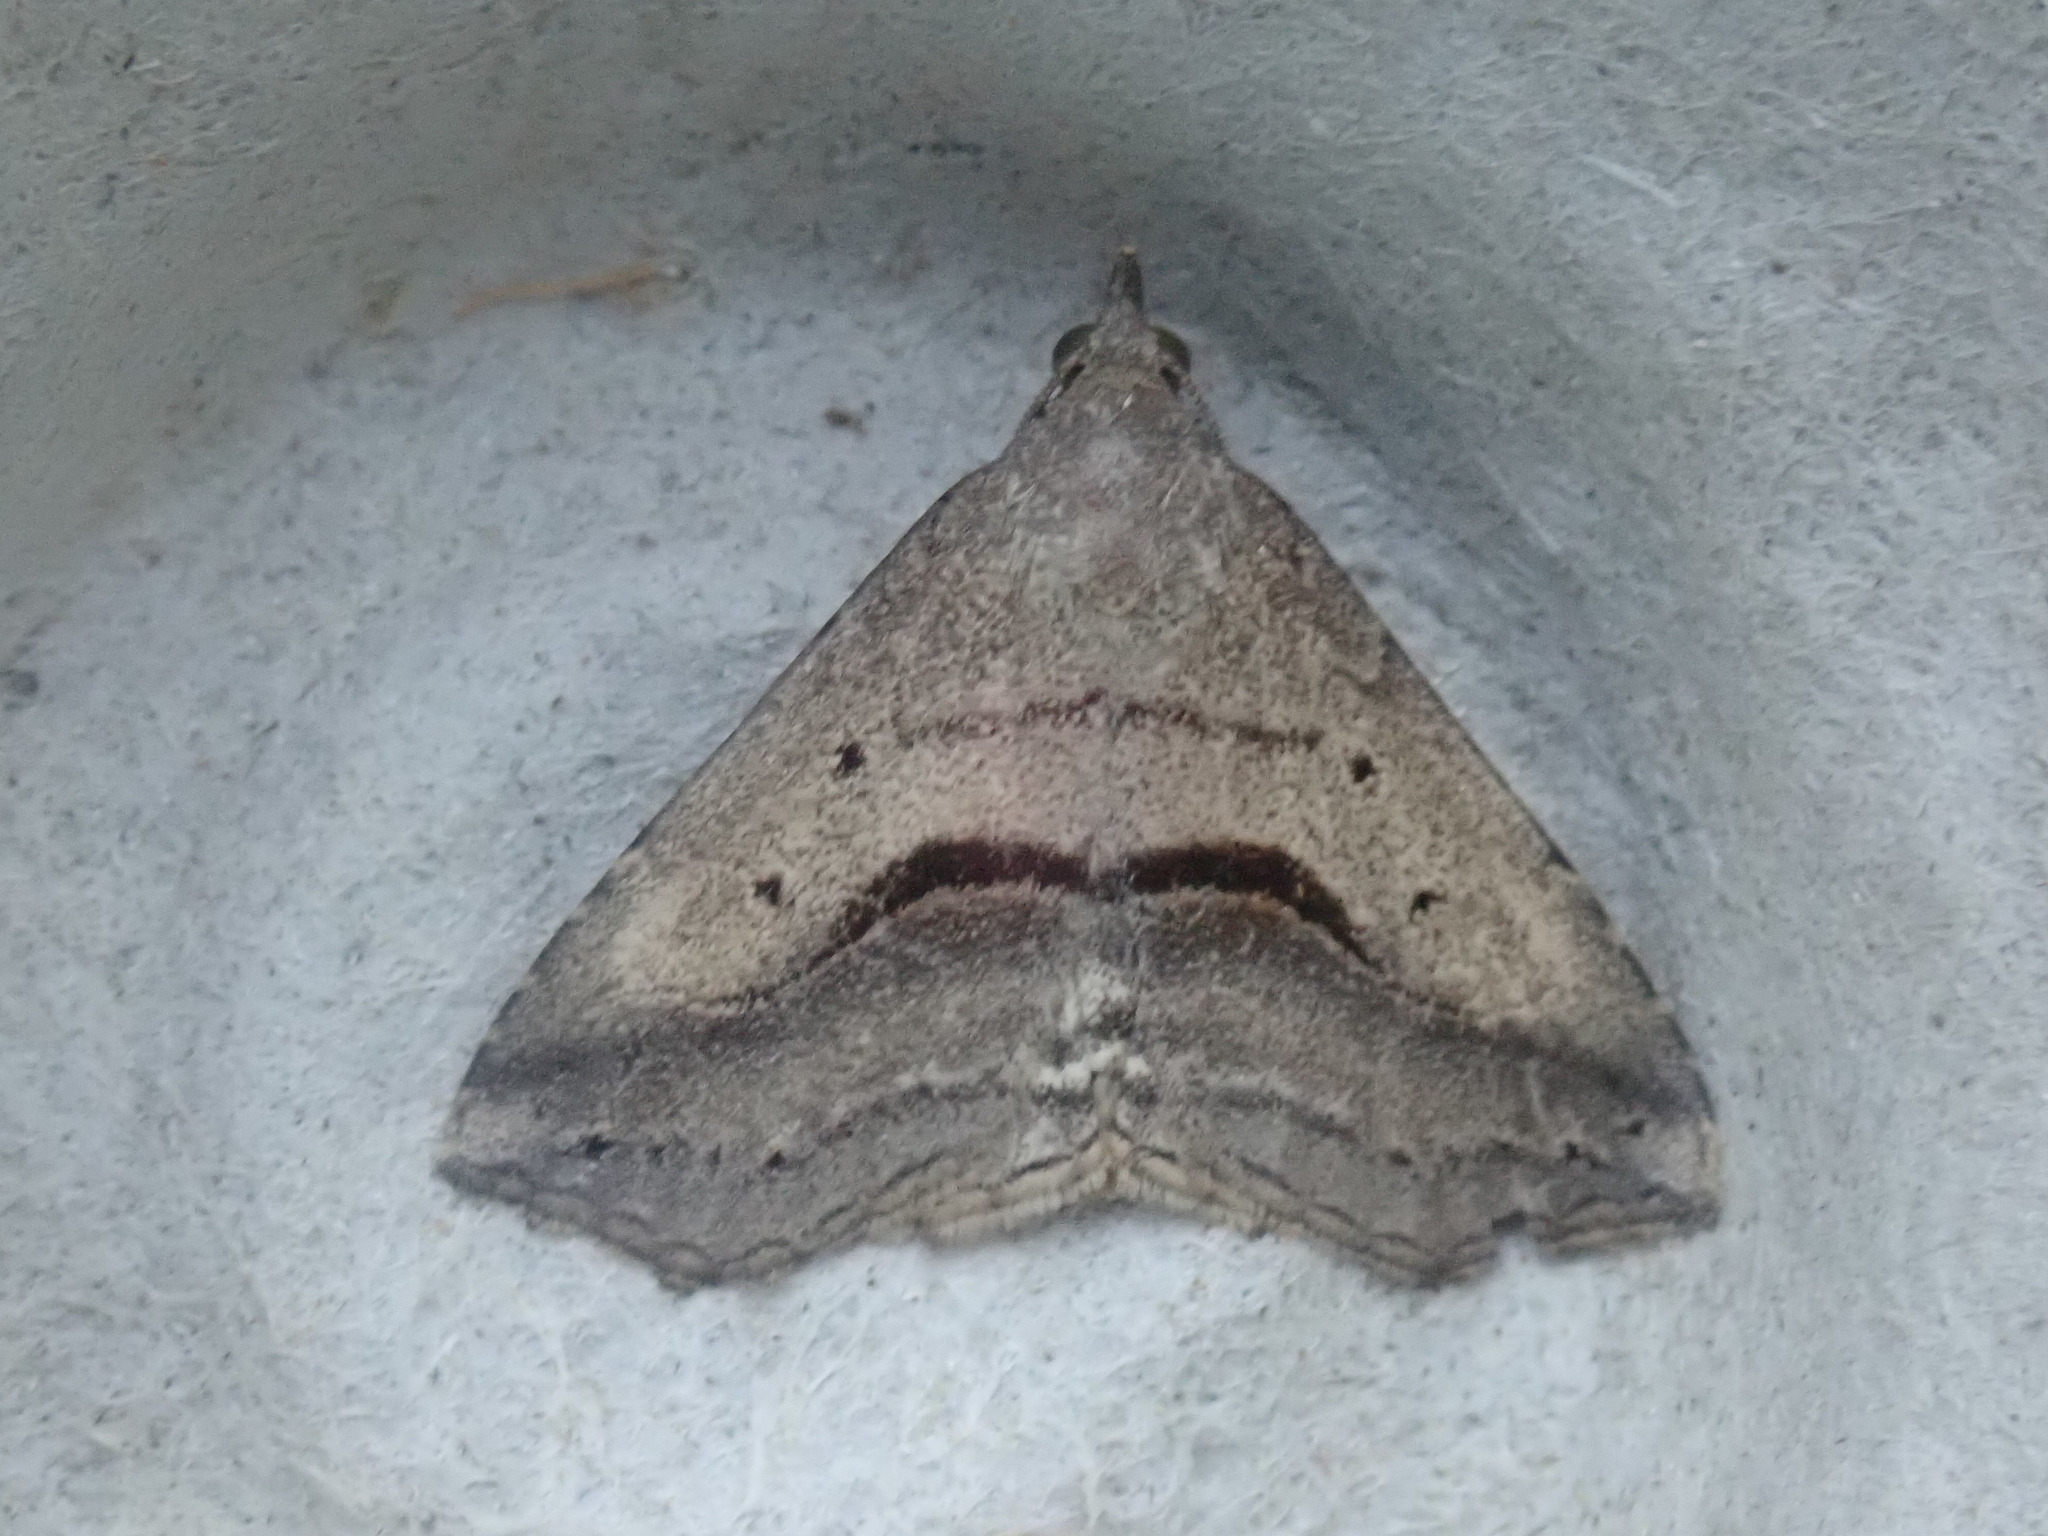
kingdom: Animalia
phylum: Arthropoda
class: Insecta
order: Lepidoptera
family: Erebidae
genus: Spargaloma
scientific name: Spargaloma perditalis
